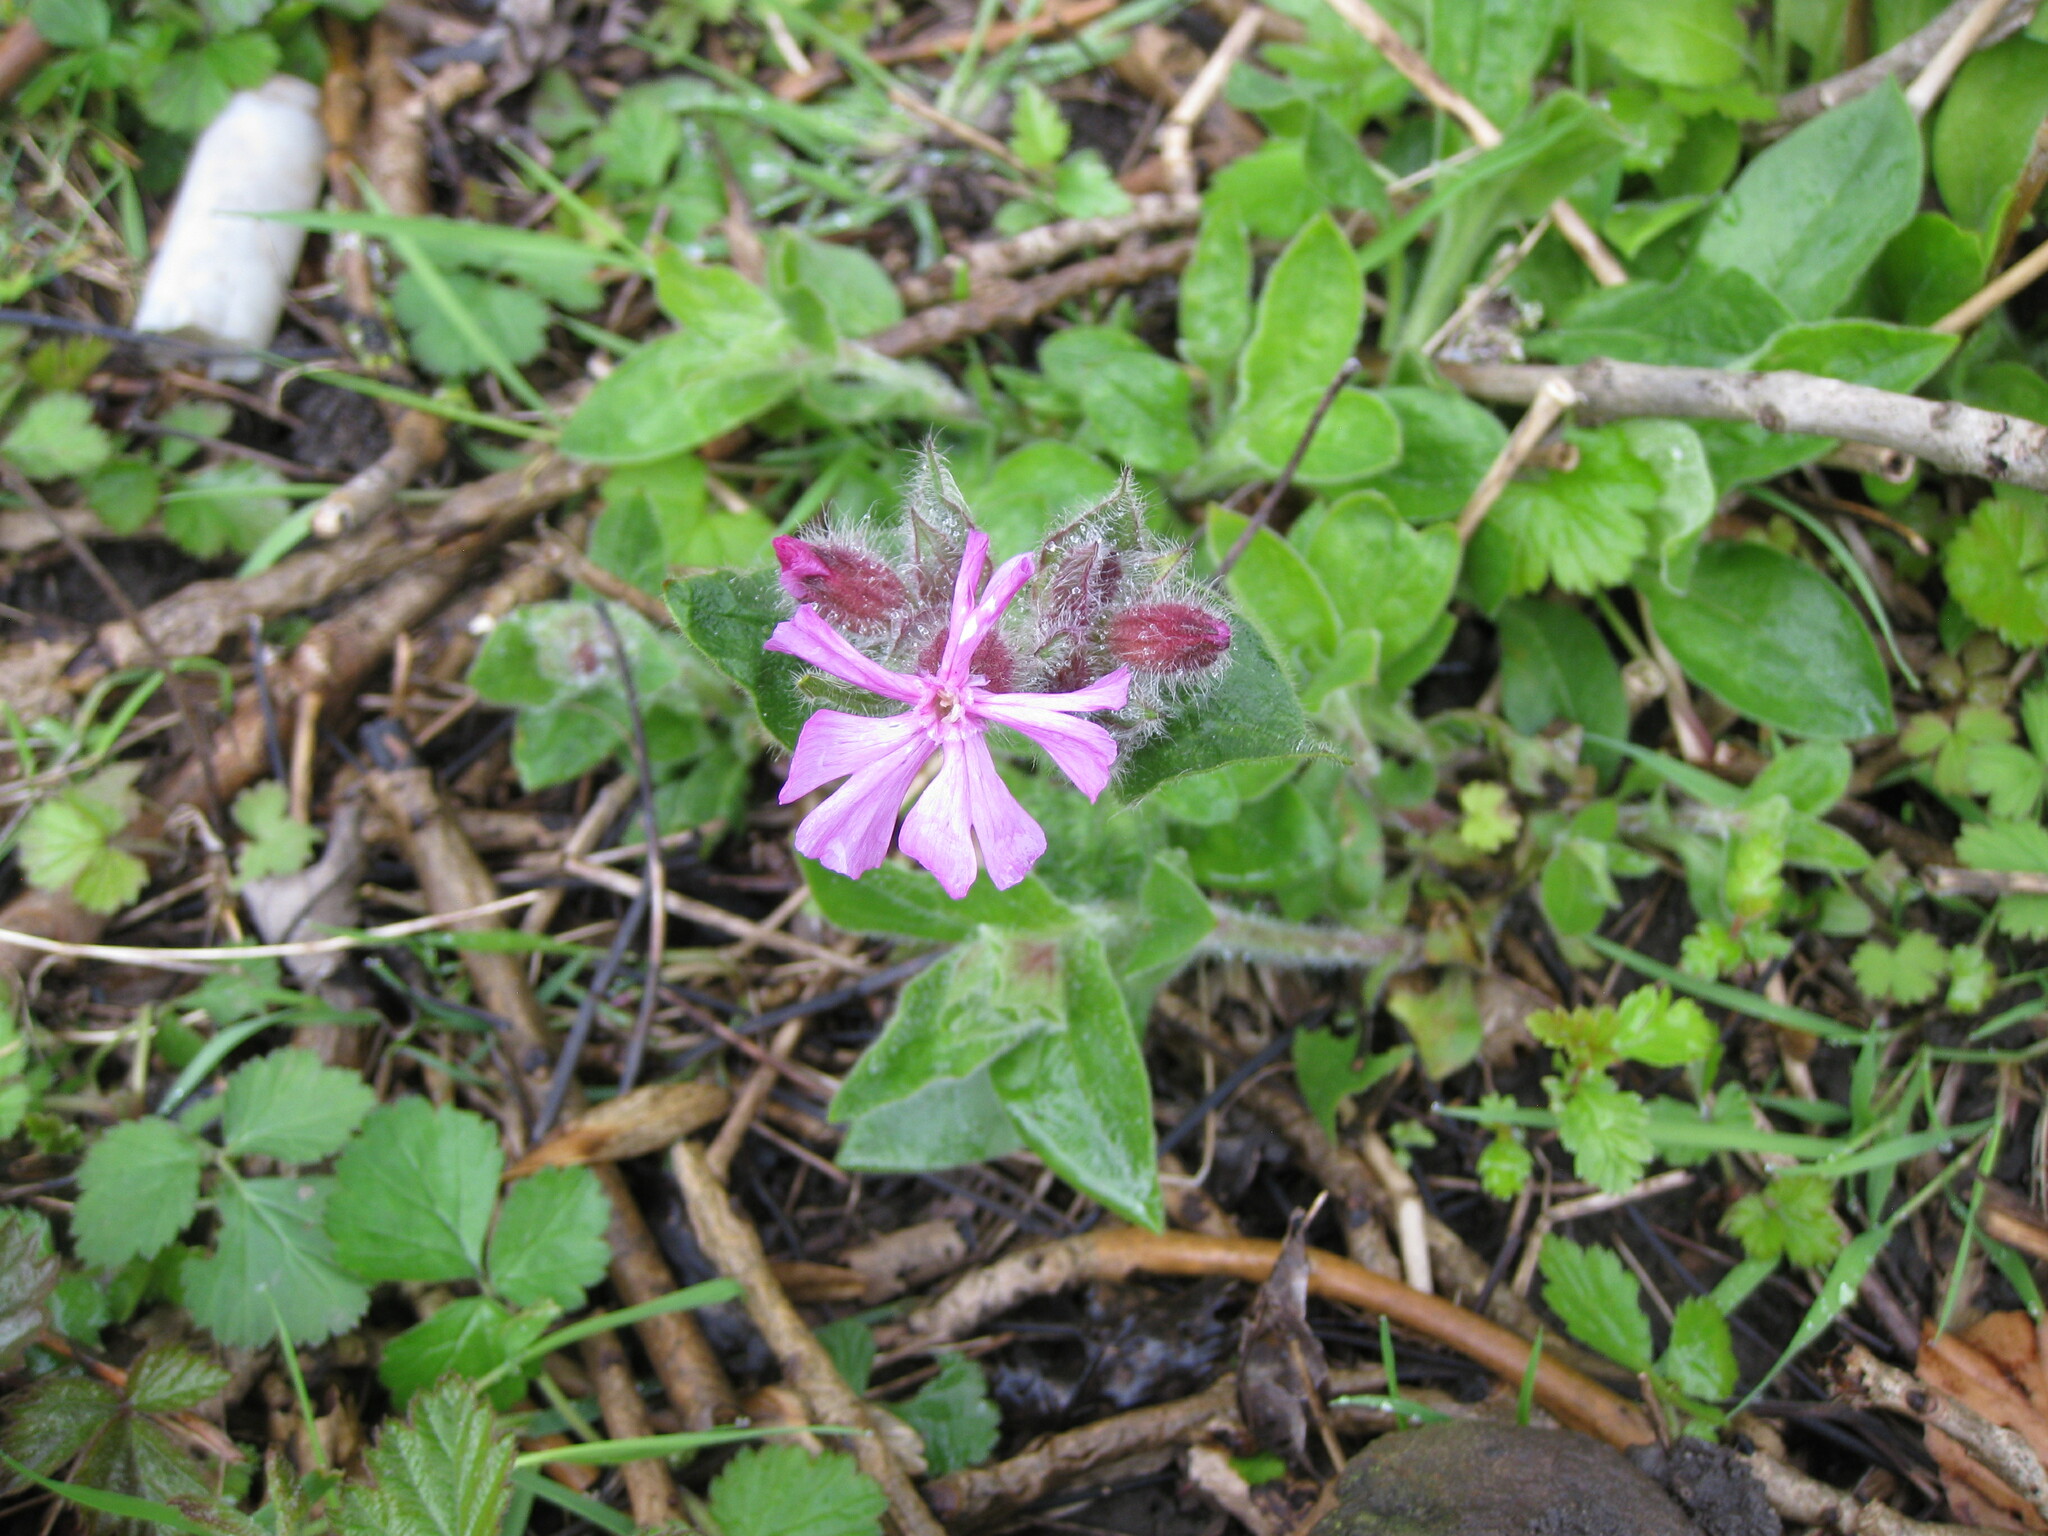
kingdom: Plantae
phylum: Tracheophyta
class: Magnoliopsida
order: Caryophyllales
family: Caryophyllaceae
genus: Silene
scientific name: Silene dioica
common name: Red campion
